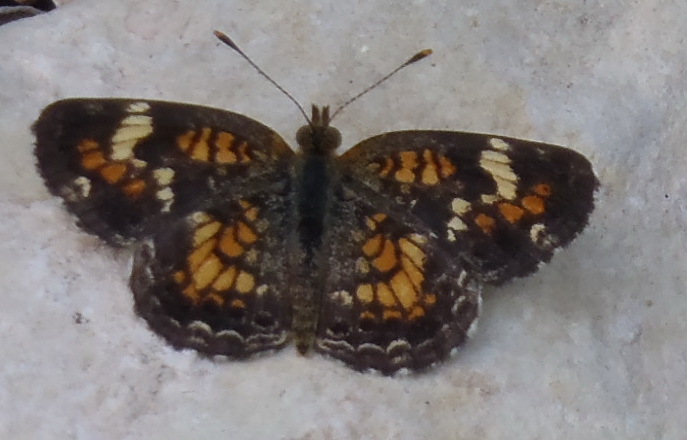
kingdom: Animalia
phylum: Arthropoda
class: Insecta
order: Lepidoptera
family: Nymphalidae
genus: Phyciodes
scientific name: Phyciodes phaon
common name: Phaon crescent
